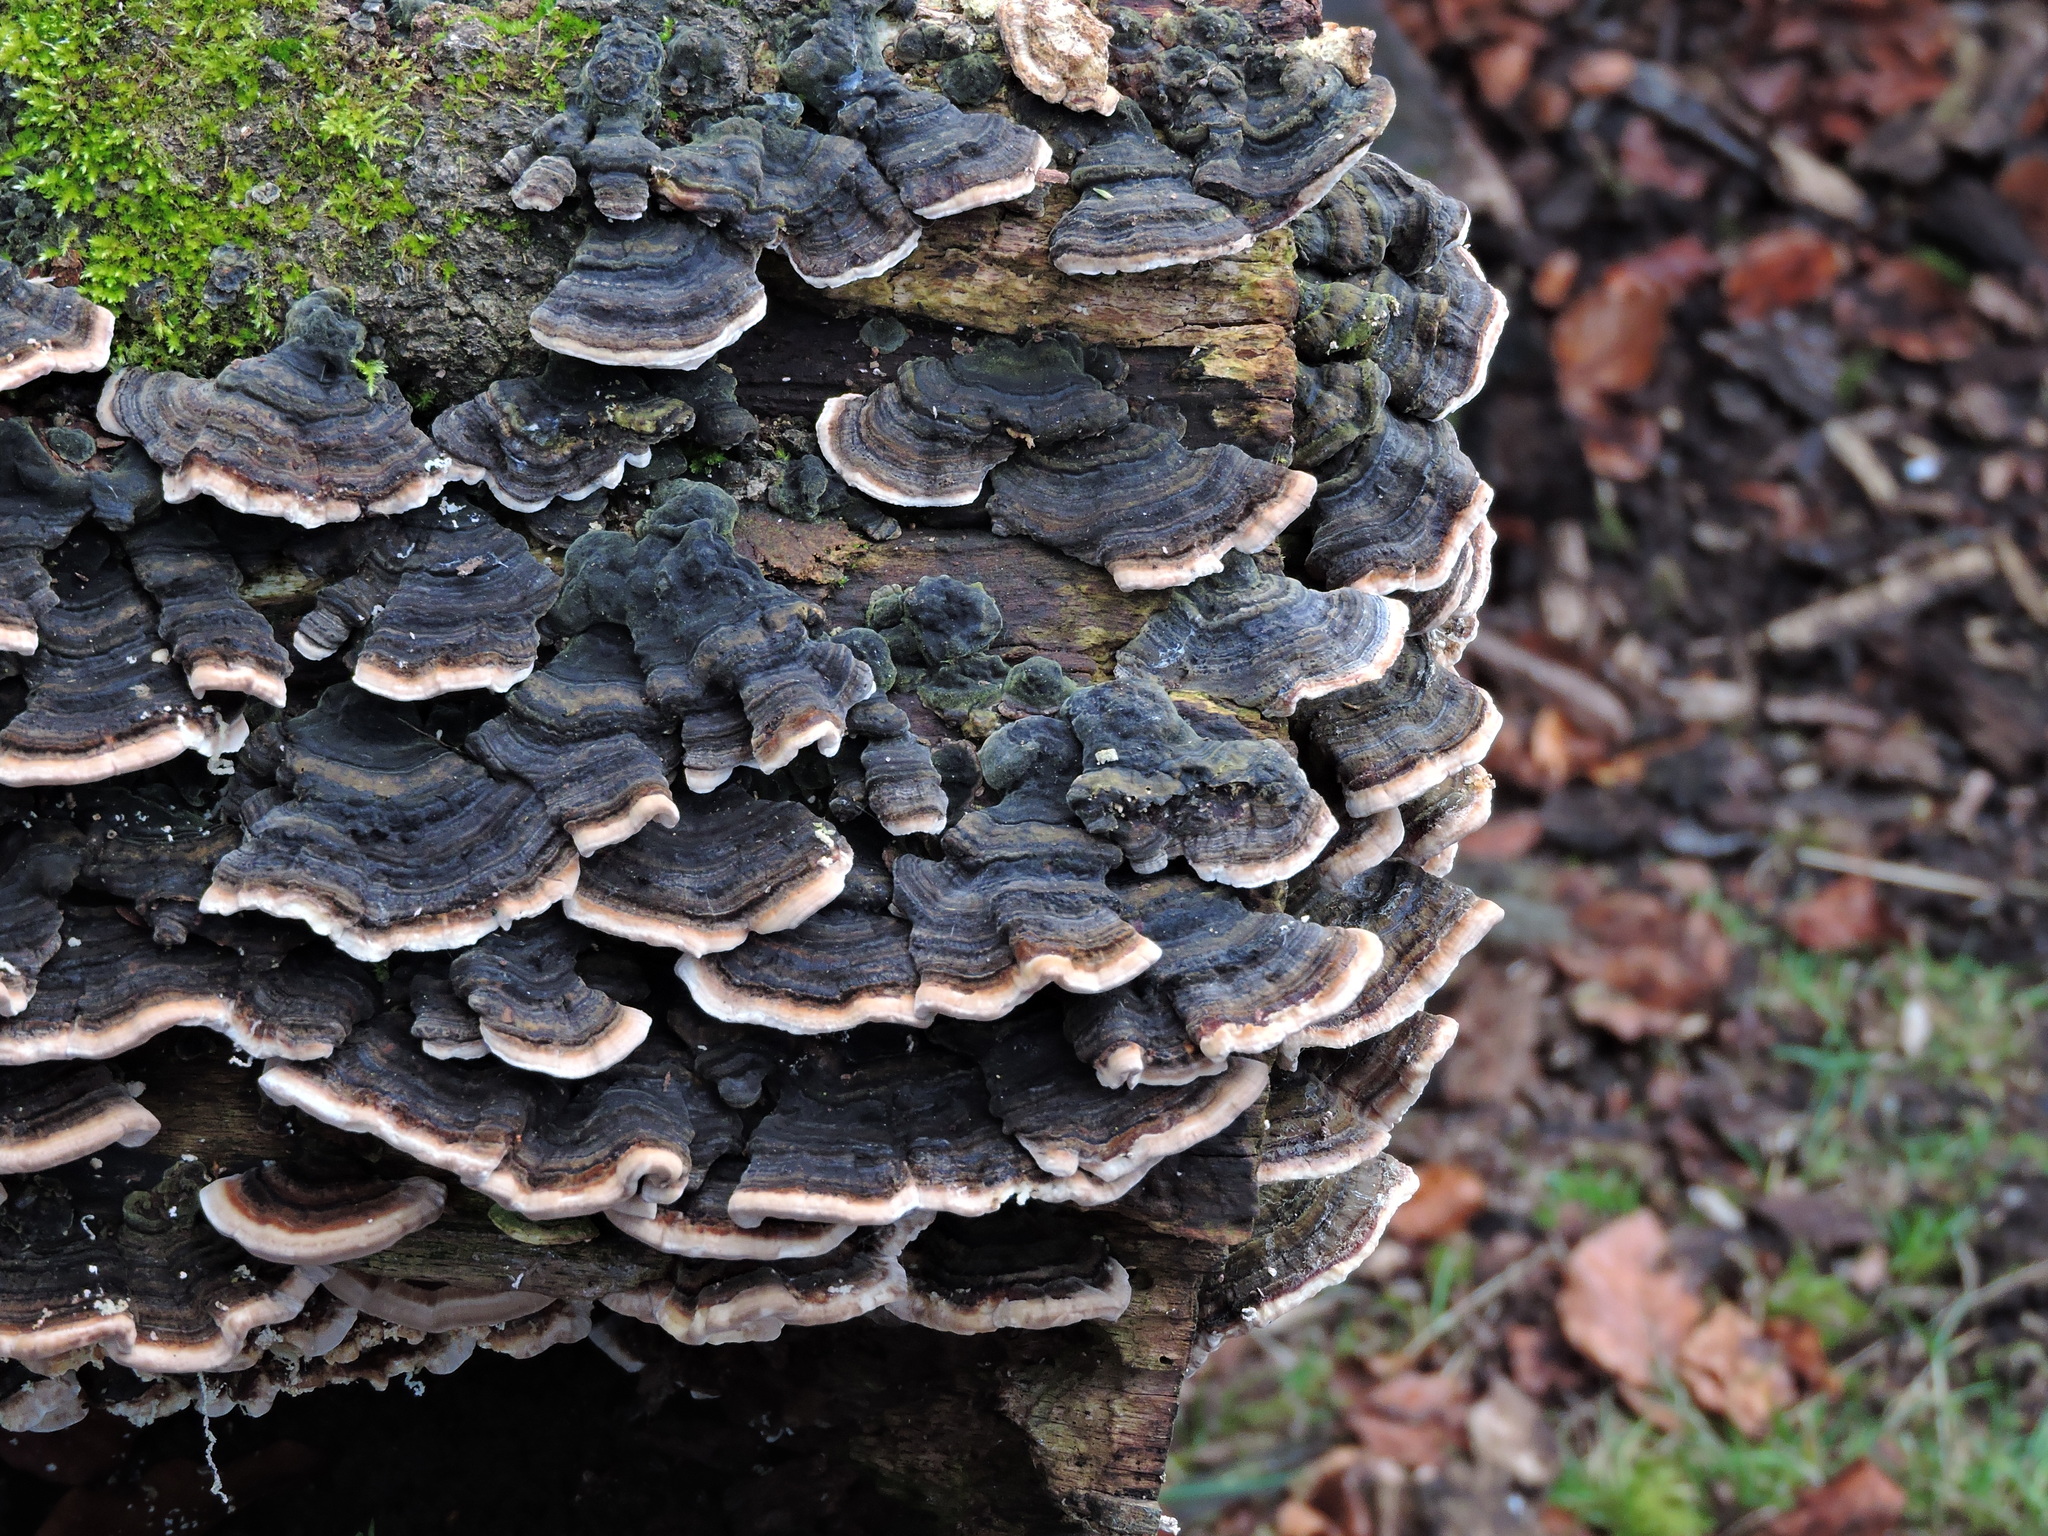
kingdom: Fungi
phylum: Basidiomycota
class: Agaricomycetes
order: Polyporales
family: Polyporaceae
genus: Trametes
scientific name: Trametes versicolor
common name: Turkeytail
